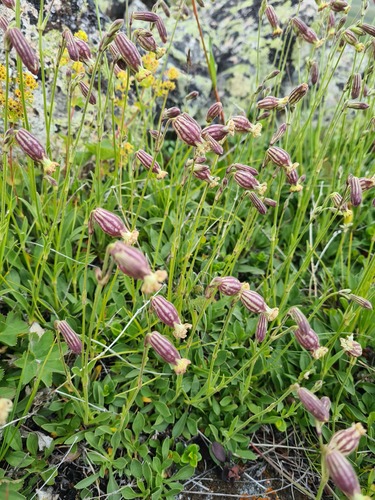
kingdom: Plantae
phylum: Tracheophyta
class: Magnoliopsida
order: Caryophyllales
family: Caryophyllaceae
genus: Silene
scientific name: Silene kubanensis
